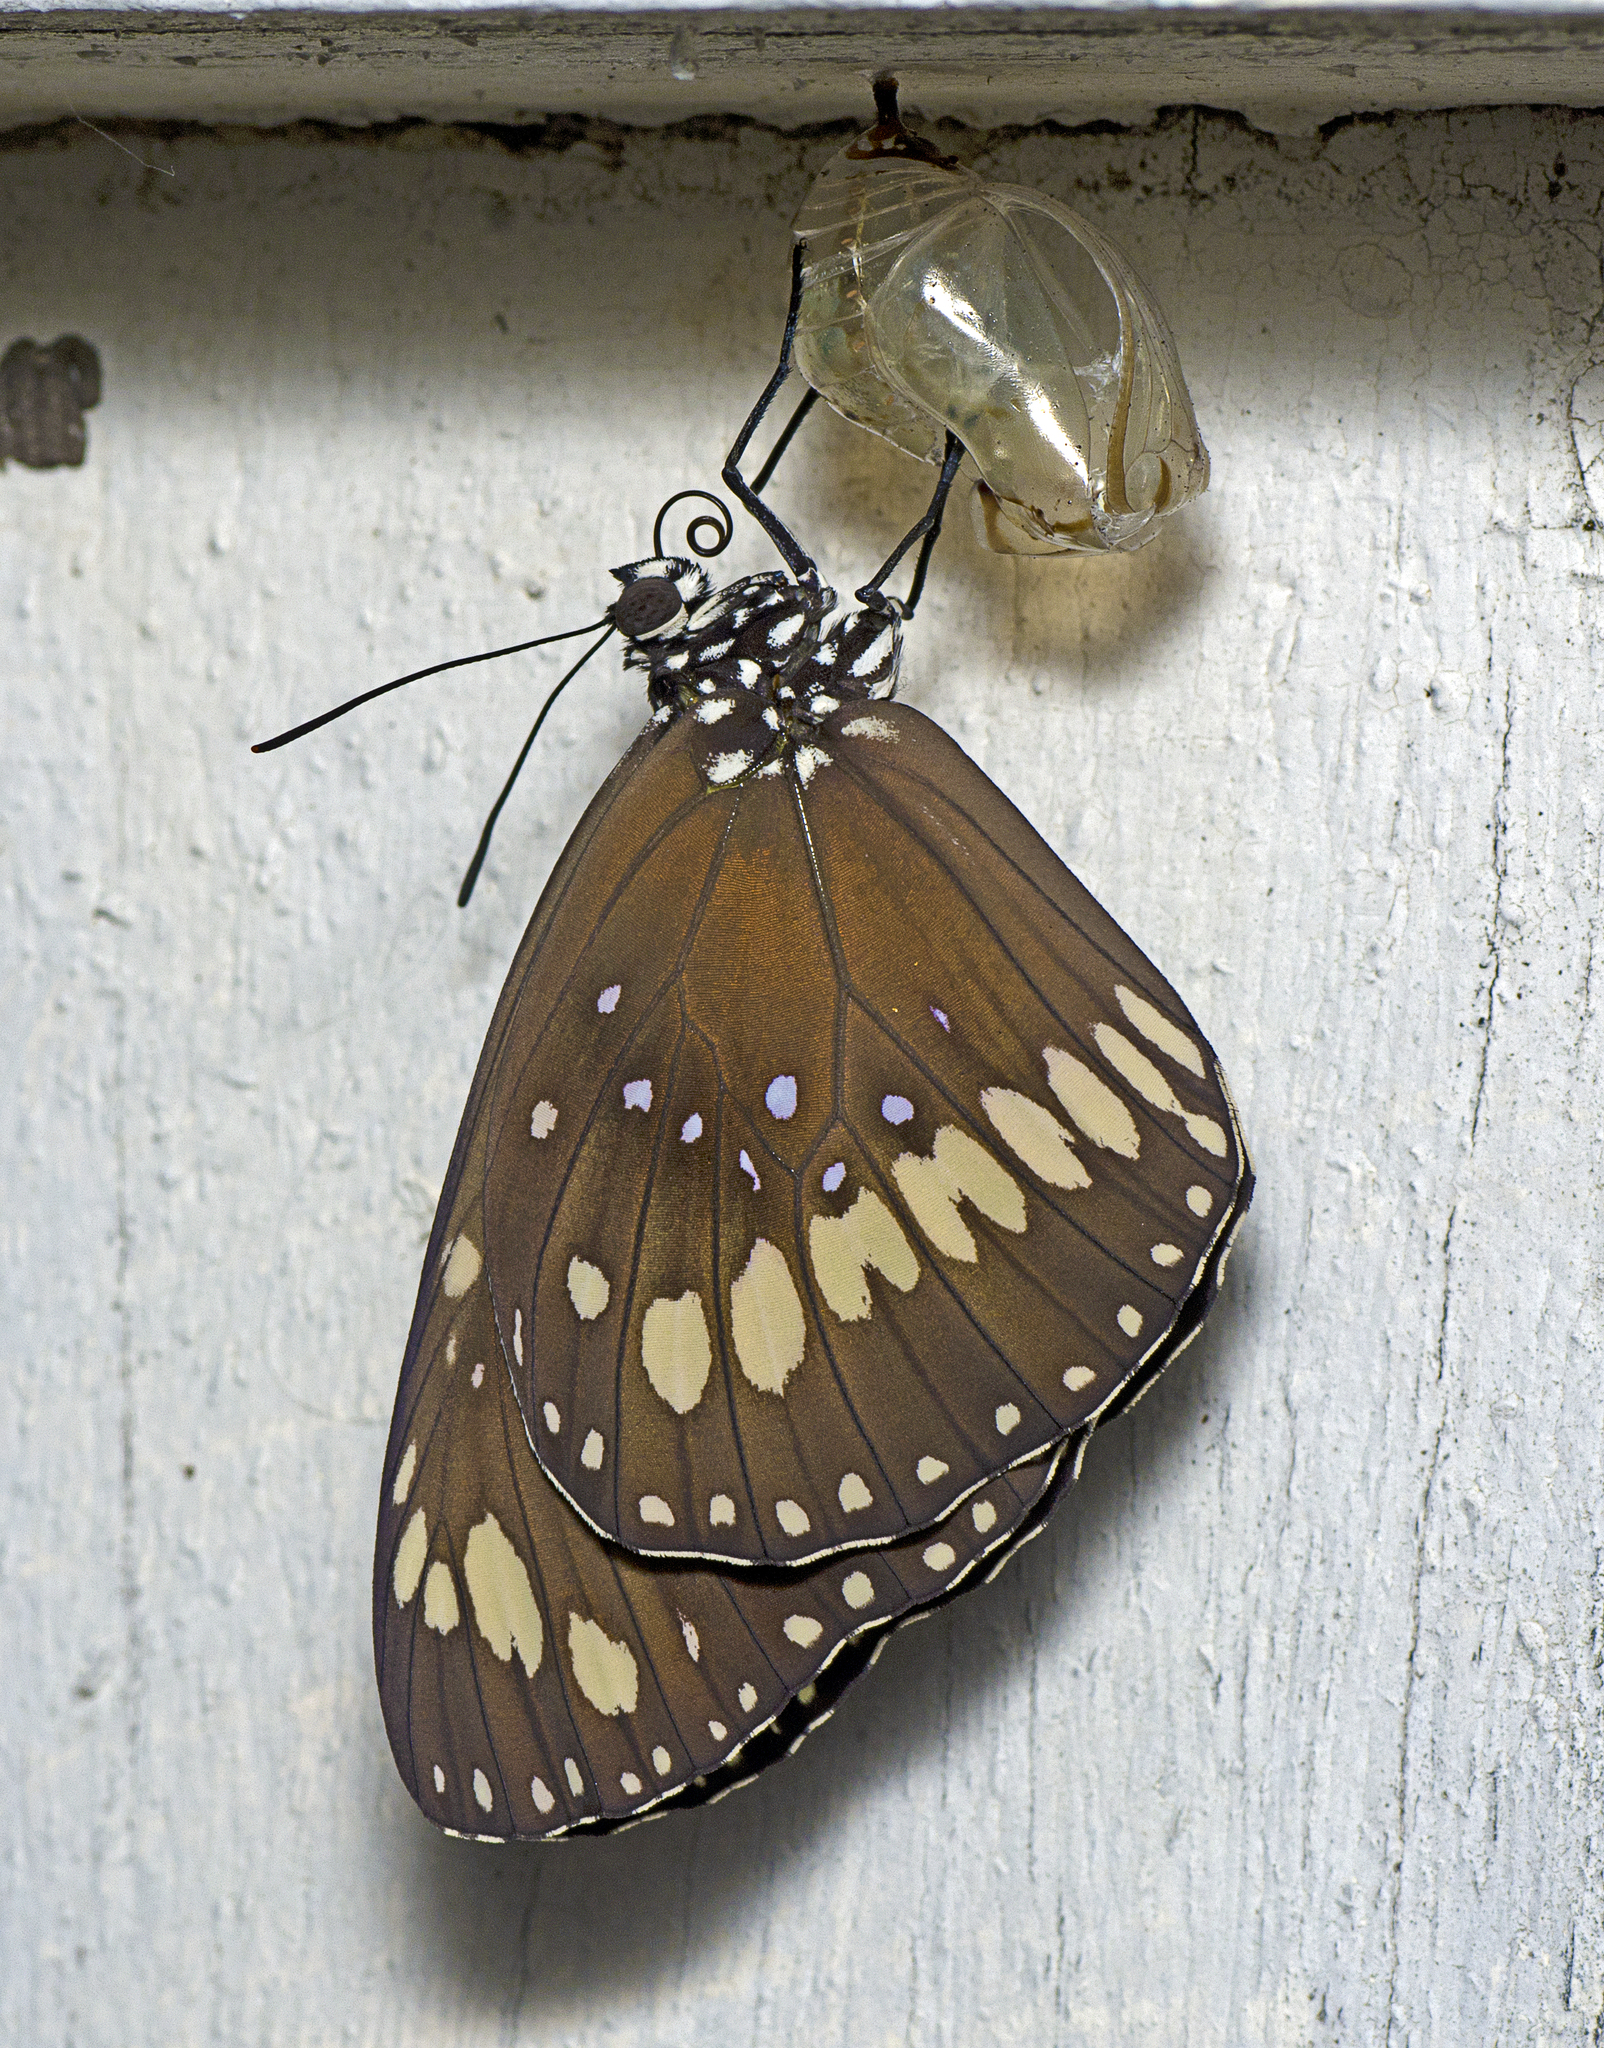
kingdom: Animalia
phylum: Arthropoda
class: Insecta
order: Lepidoptera
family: Nymphalidae
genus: Euploea
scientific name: Euploea core
